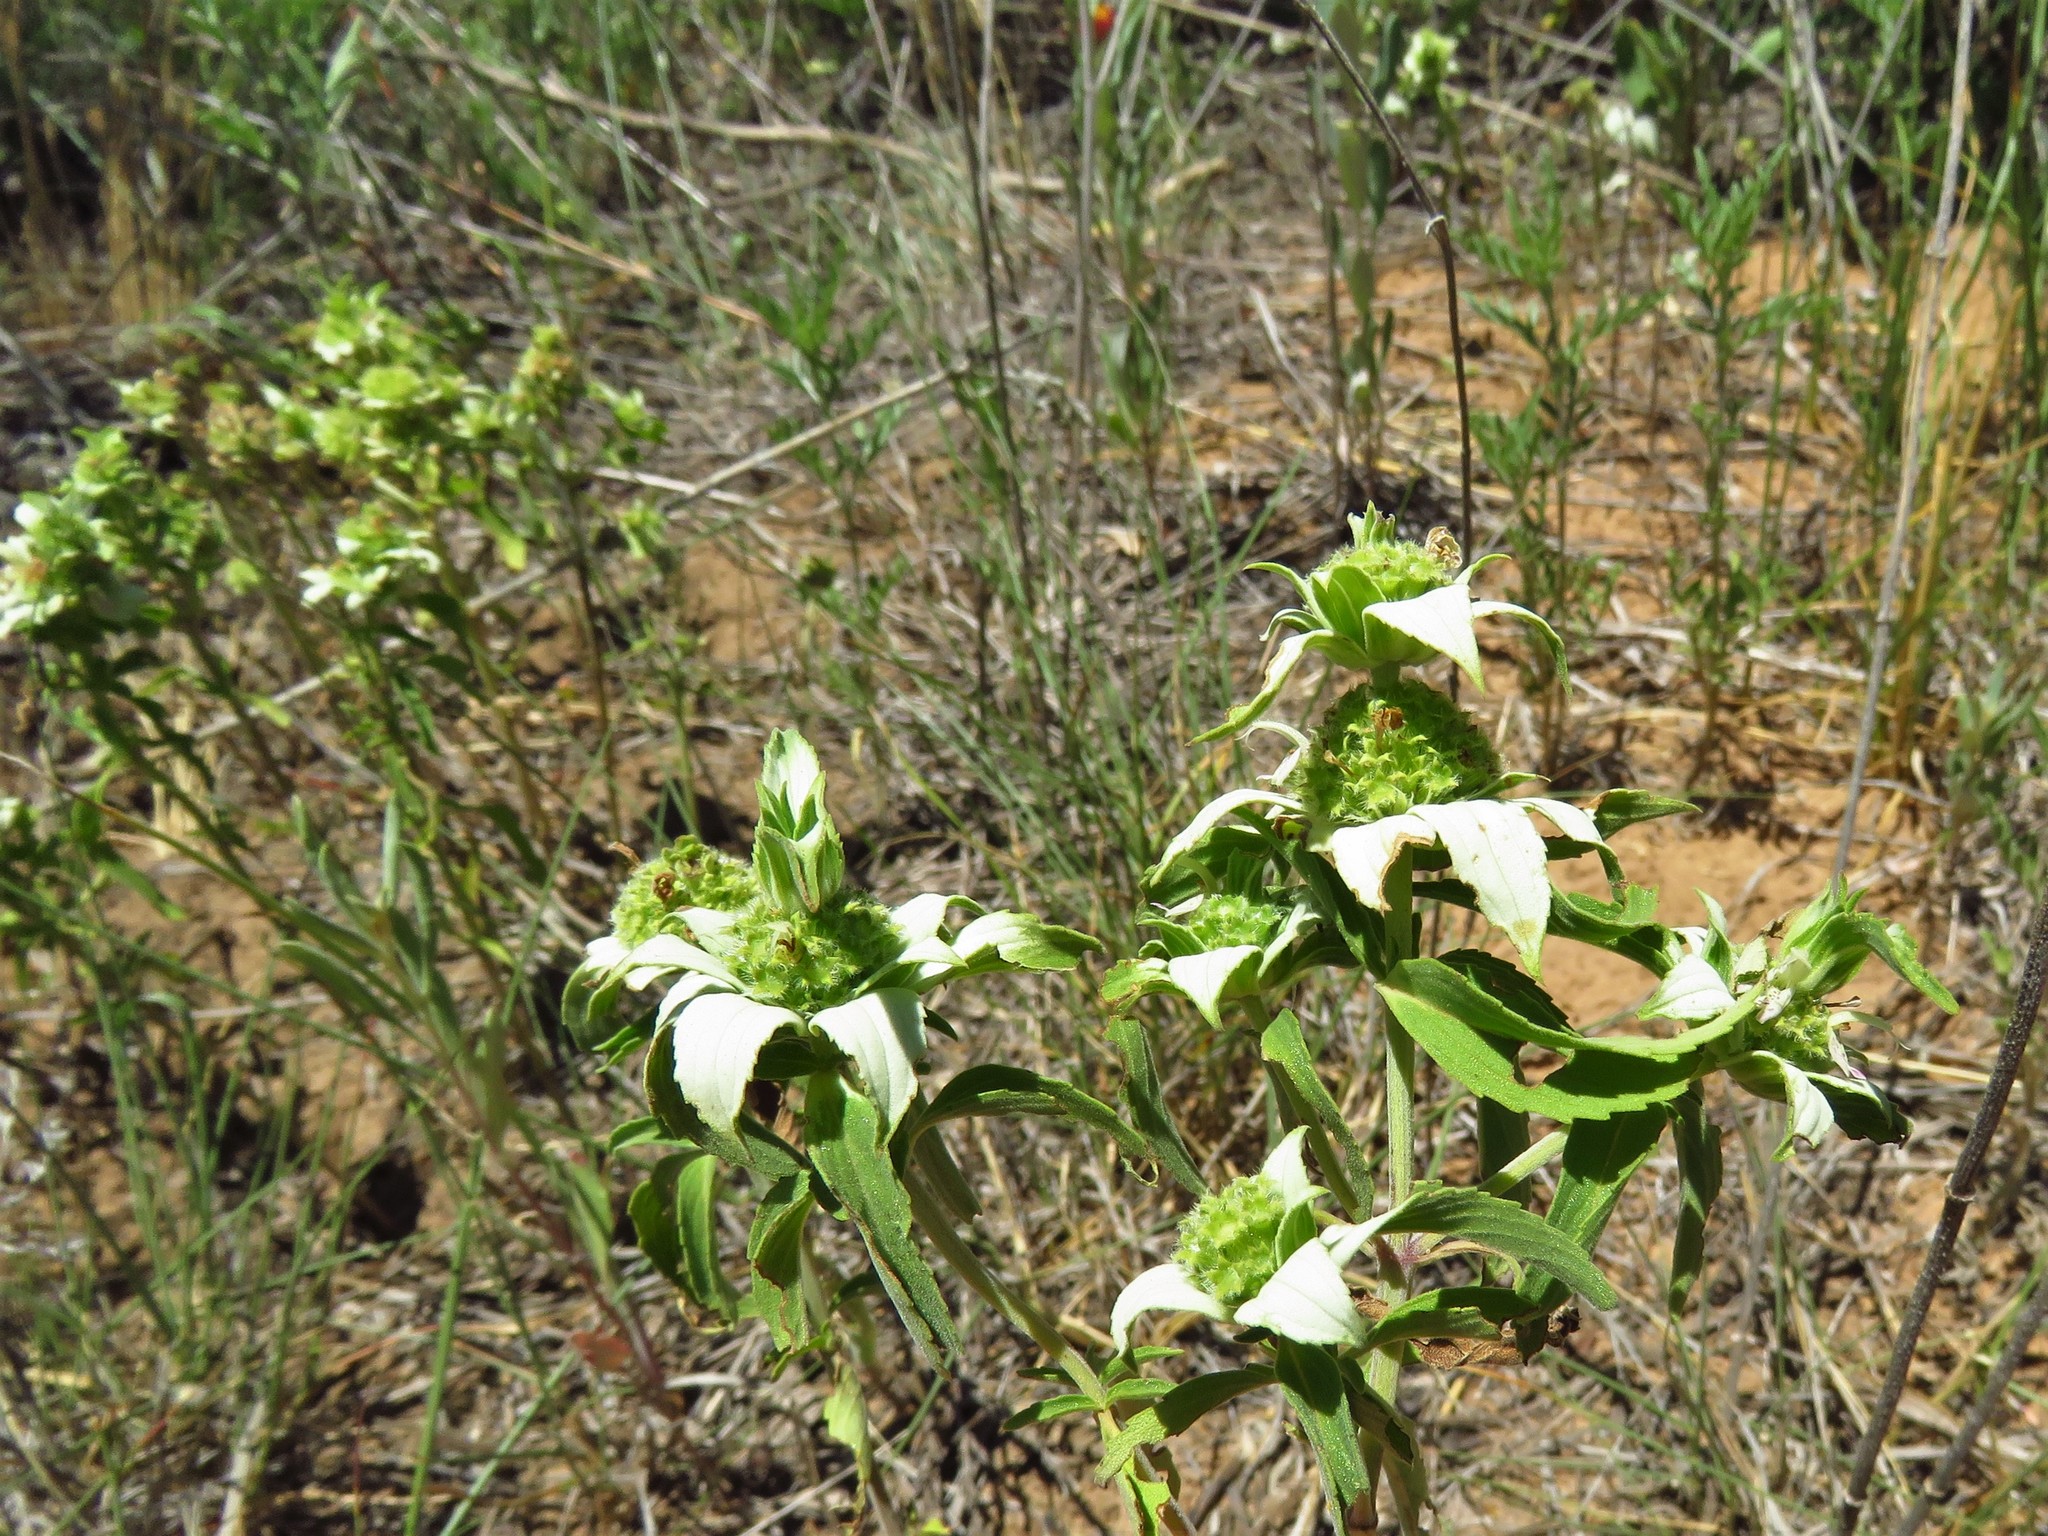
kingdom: Plantae
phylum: Tracheophyta
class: Magnoliopsida
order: Lamiales
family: Lamiaceae
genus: Monarda
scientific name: Monarda punctata
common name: Dotted monarda
